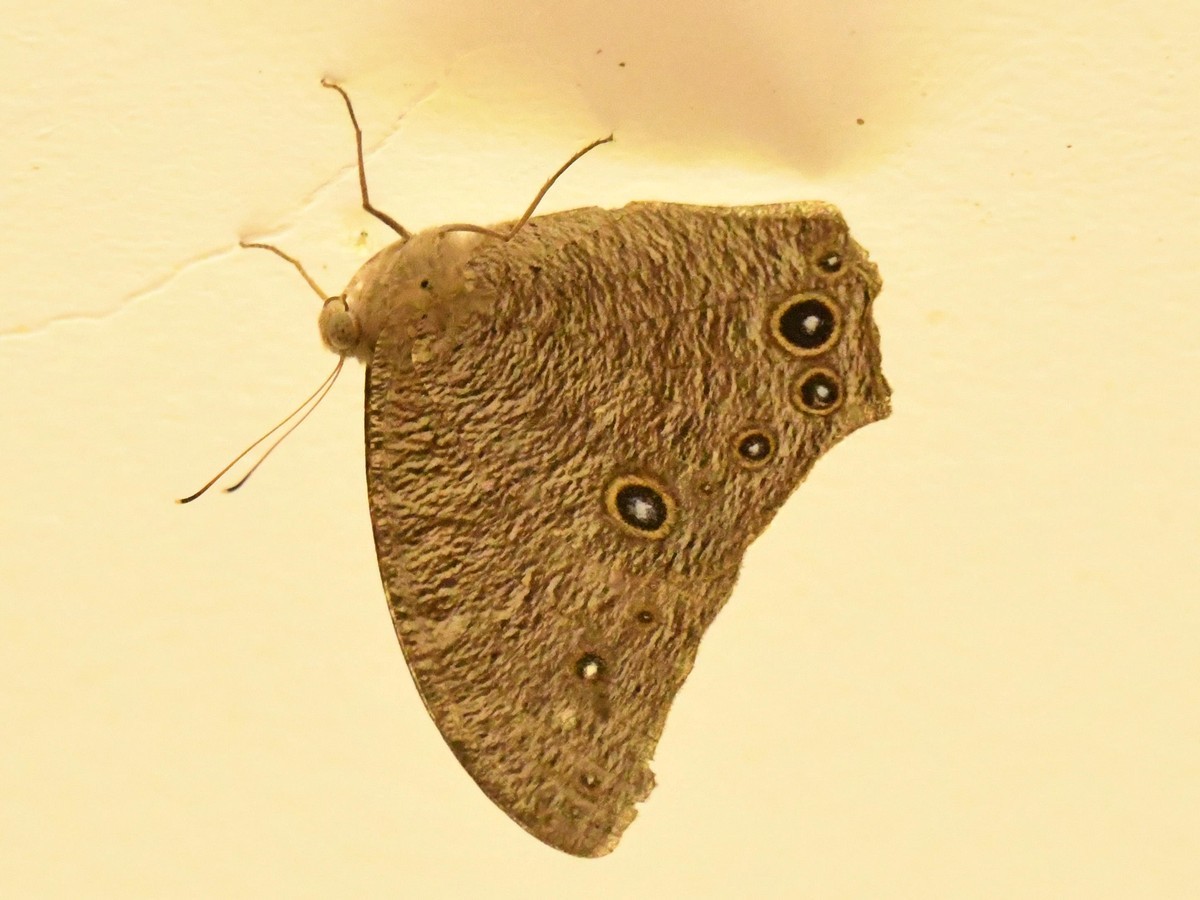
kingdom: Animalia
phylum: Arthropoda
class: Insecta
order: Lepidoptera
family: Nymphalidae
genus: Melanitis
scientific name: Melanitis leda
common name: Twilight brown
